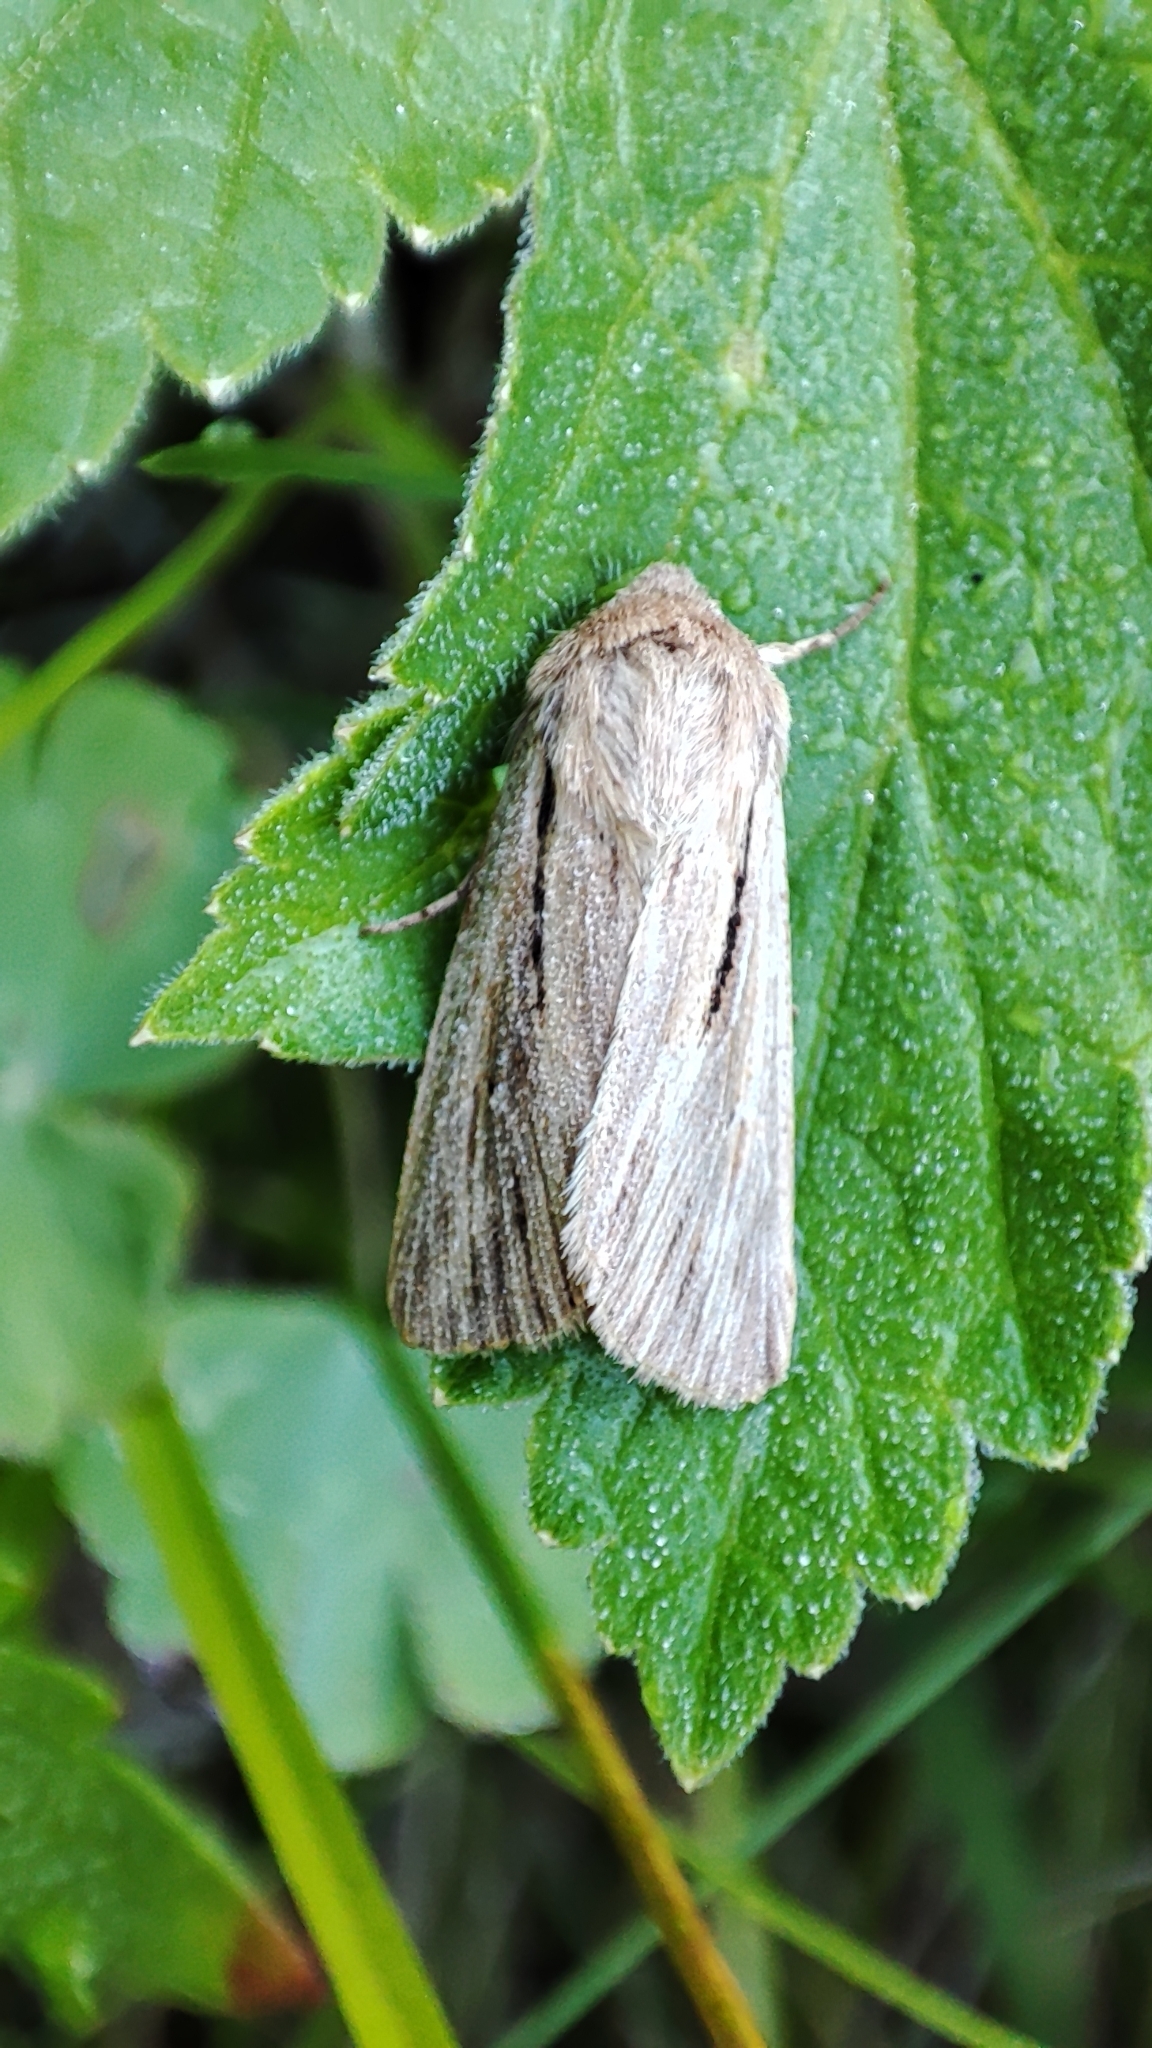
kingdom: Animalia
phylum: Arthropoda
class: Insecta
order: Lepidoptera
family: Noctuidae
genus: Leucania
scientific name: Leucania comma
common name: Shoulder-striped wainscot
